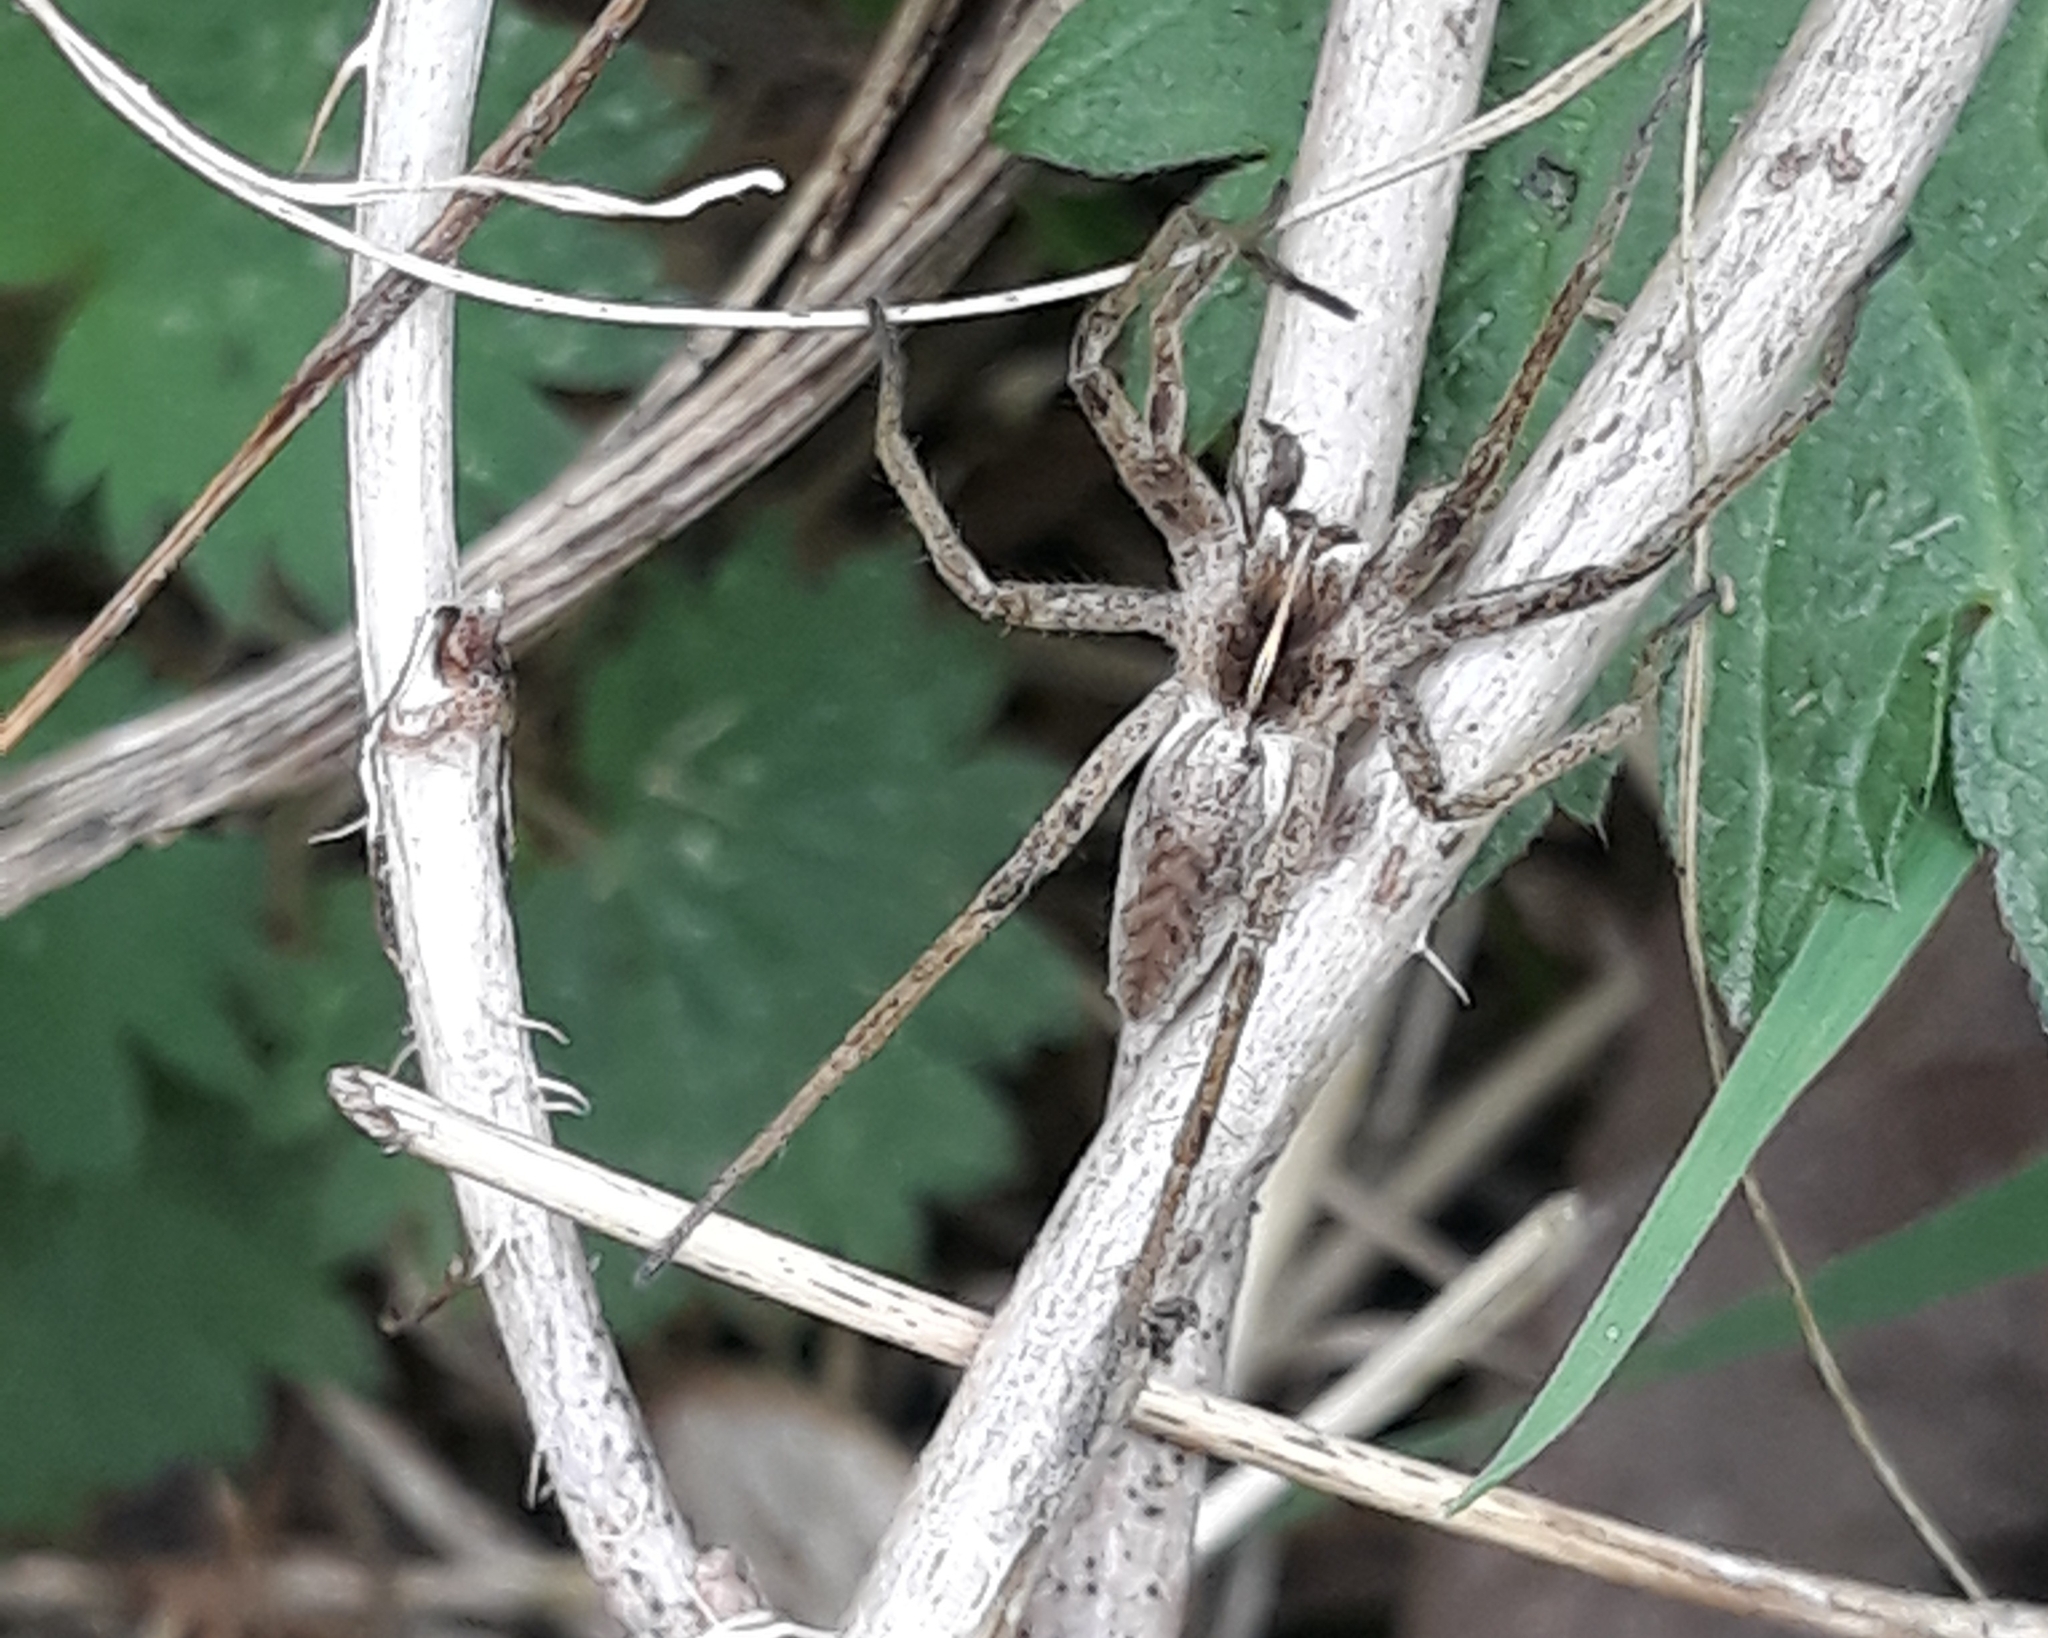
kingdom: Animalia
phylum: Arthropoda
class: Arachnida
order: Araneae
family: Pisauridae
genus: Pisaura
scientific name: Pisaura mirabilis
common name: Tent spider
